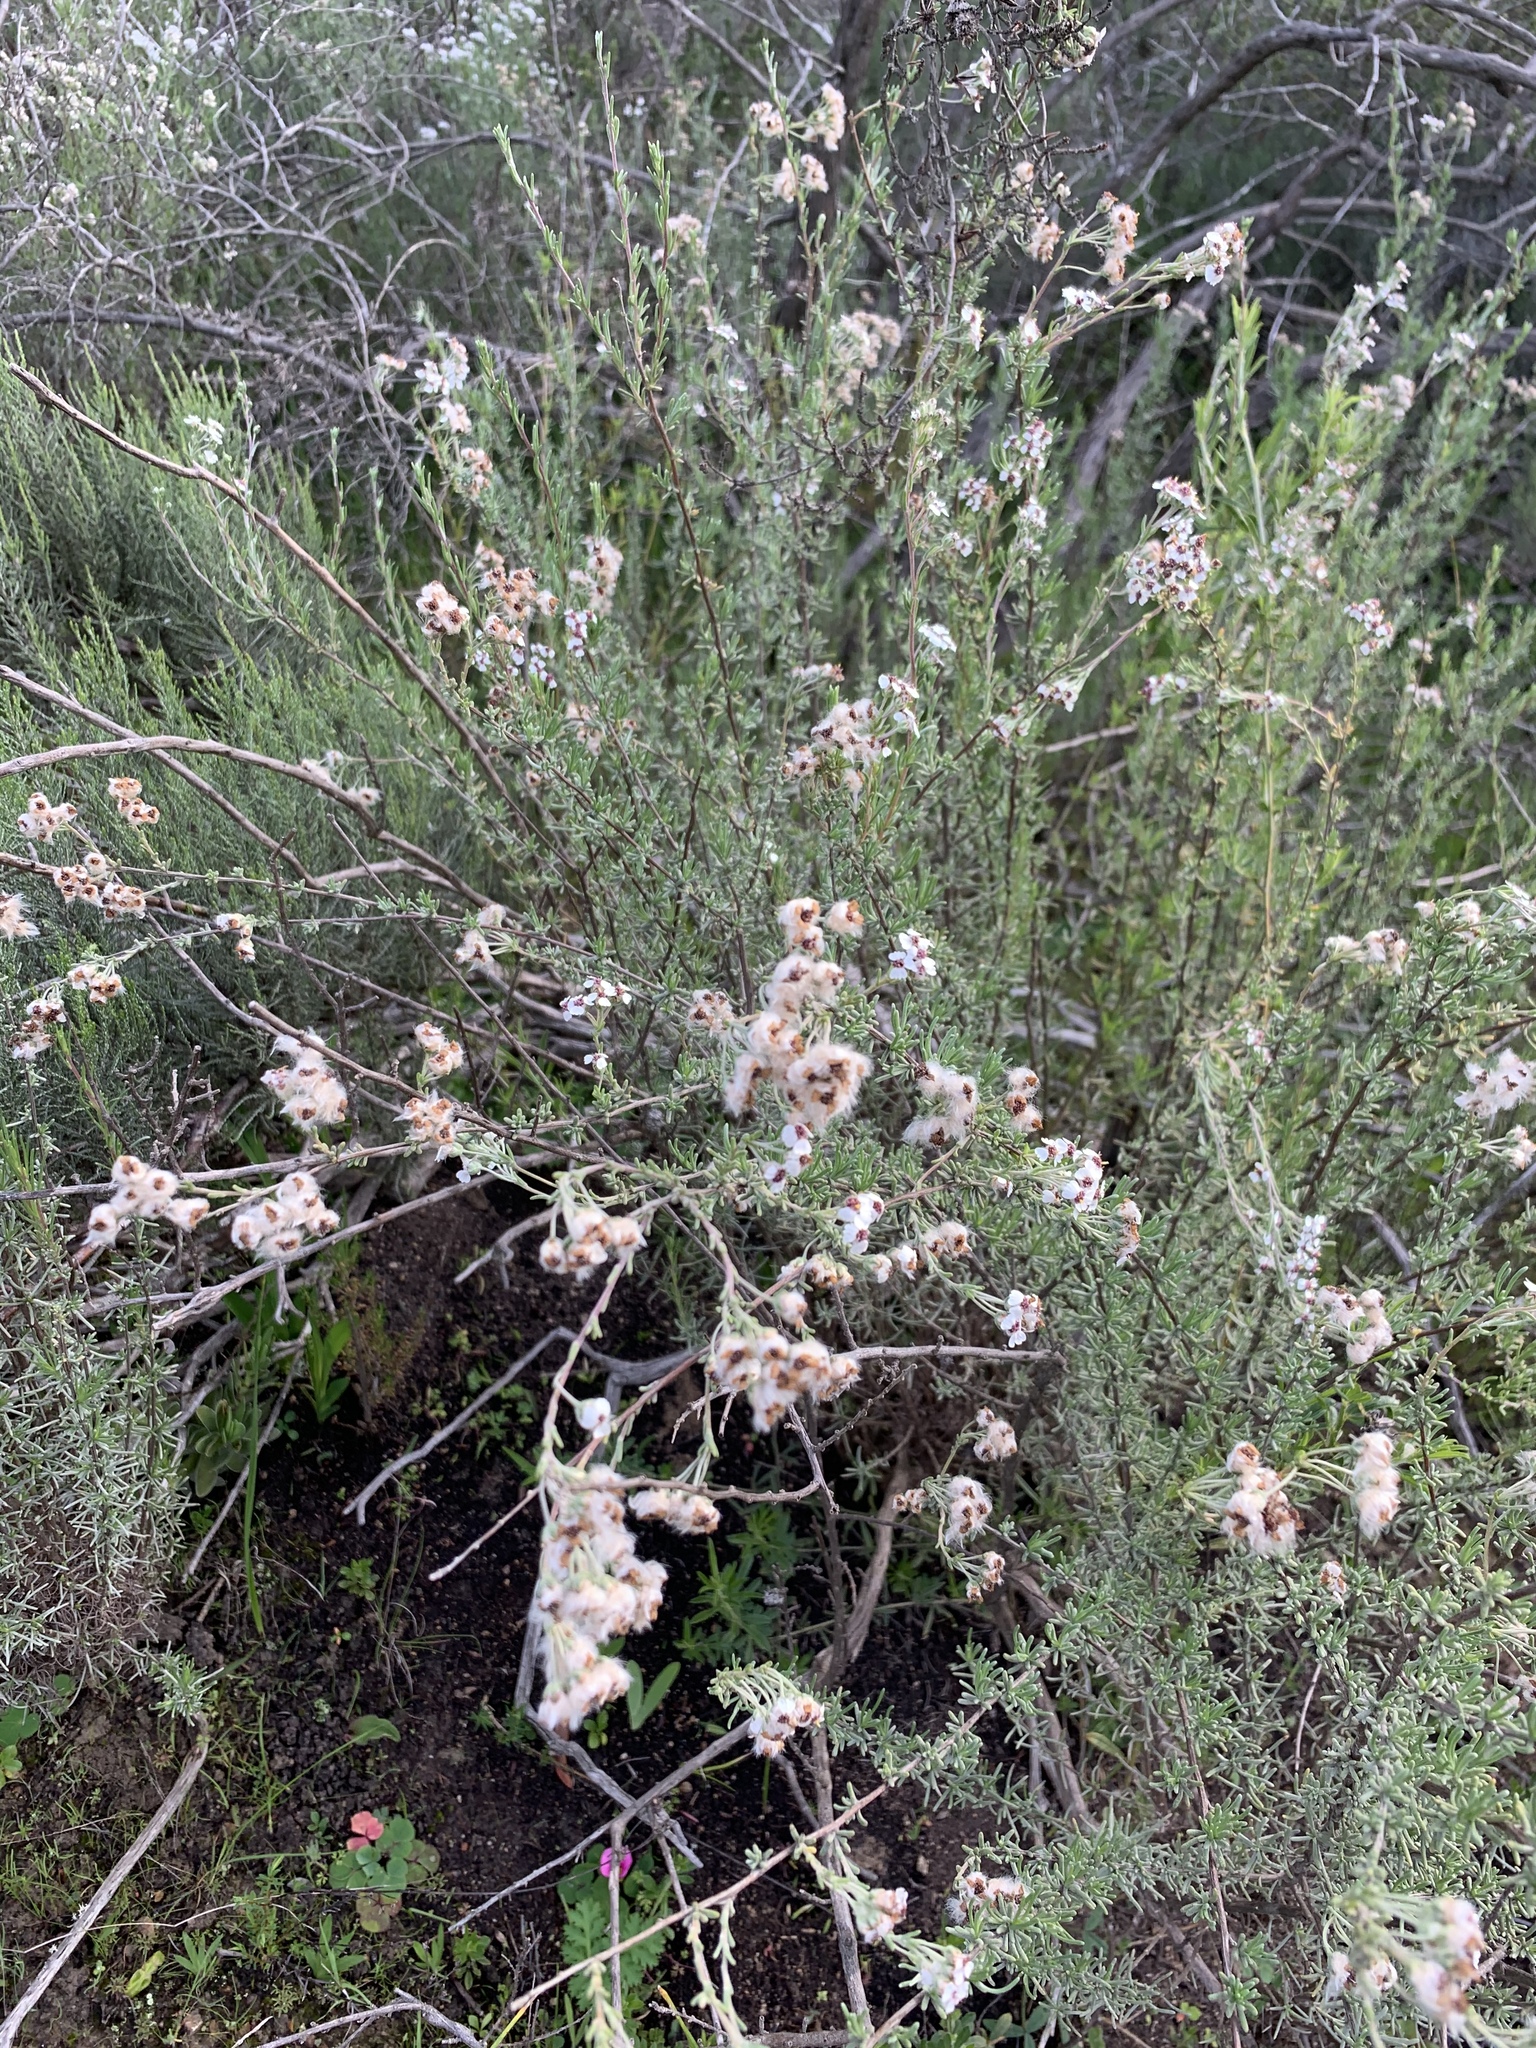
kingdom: Plantae
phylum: Tracheophyta
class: Magnoliopsida
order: Asterales
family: Asteraceae
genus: Eriocephalus
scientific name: Eriocephalus africanus
